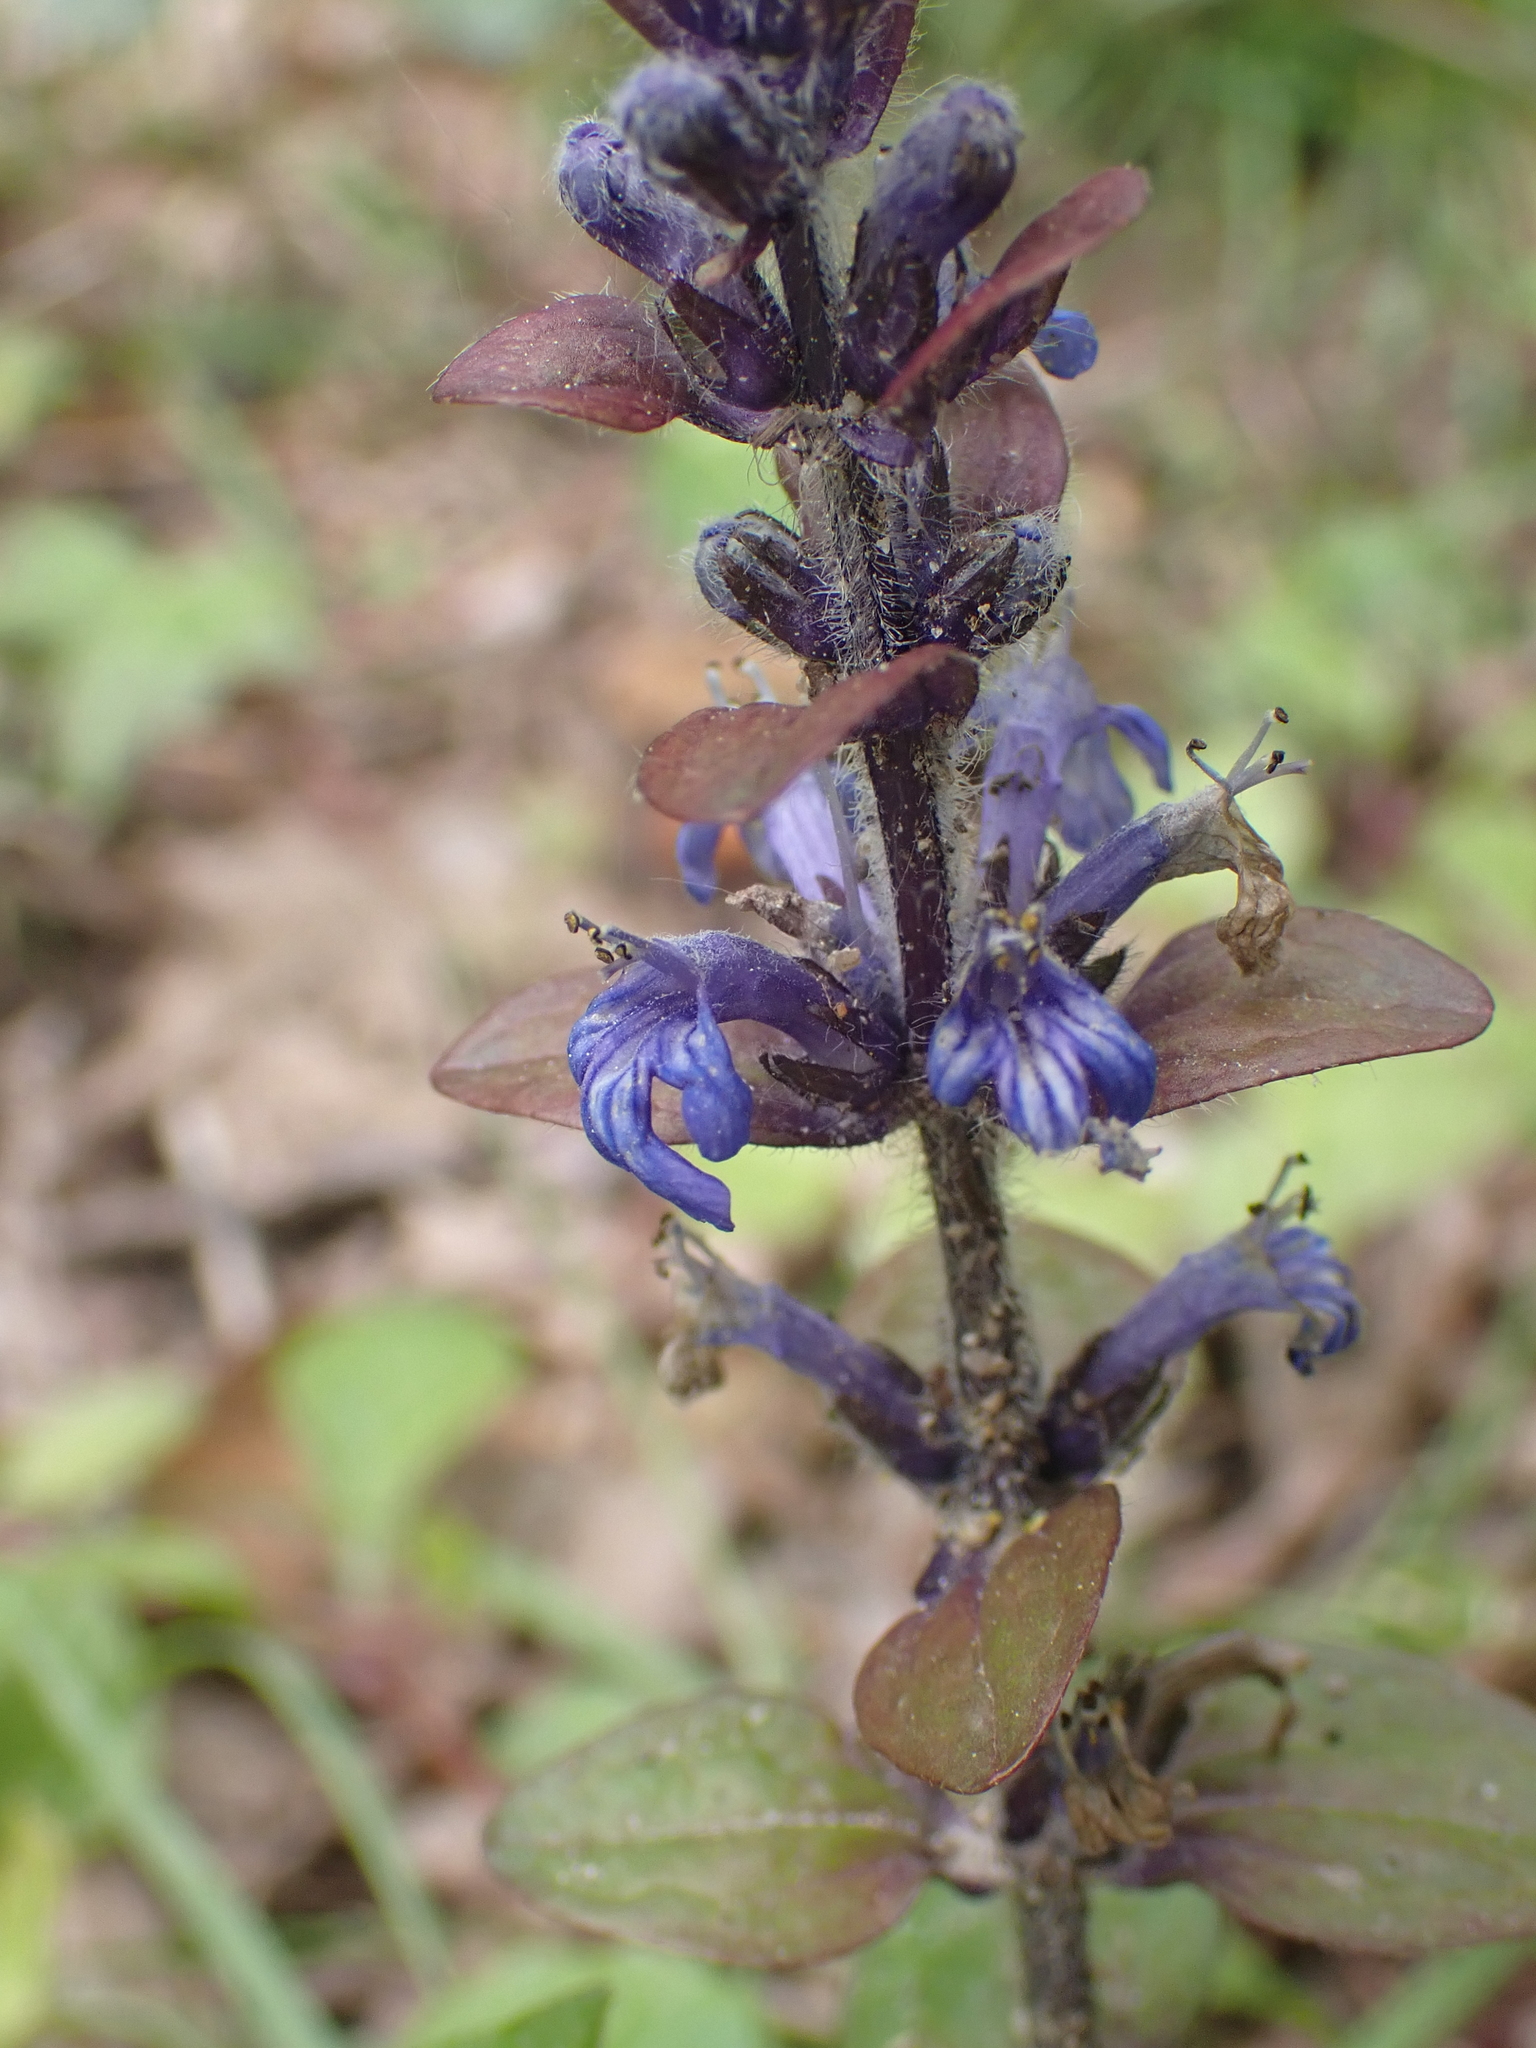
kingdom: Plantae
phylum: Tracheophyta
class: Magnoliopsida
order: Lamiales
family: Lamiaceae
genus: Ajuga
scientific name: Ajuga reptans
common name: Bugle
